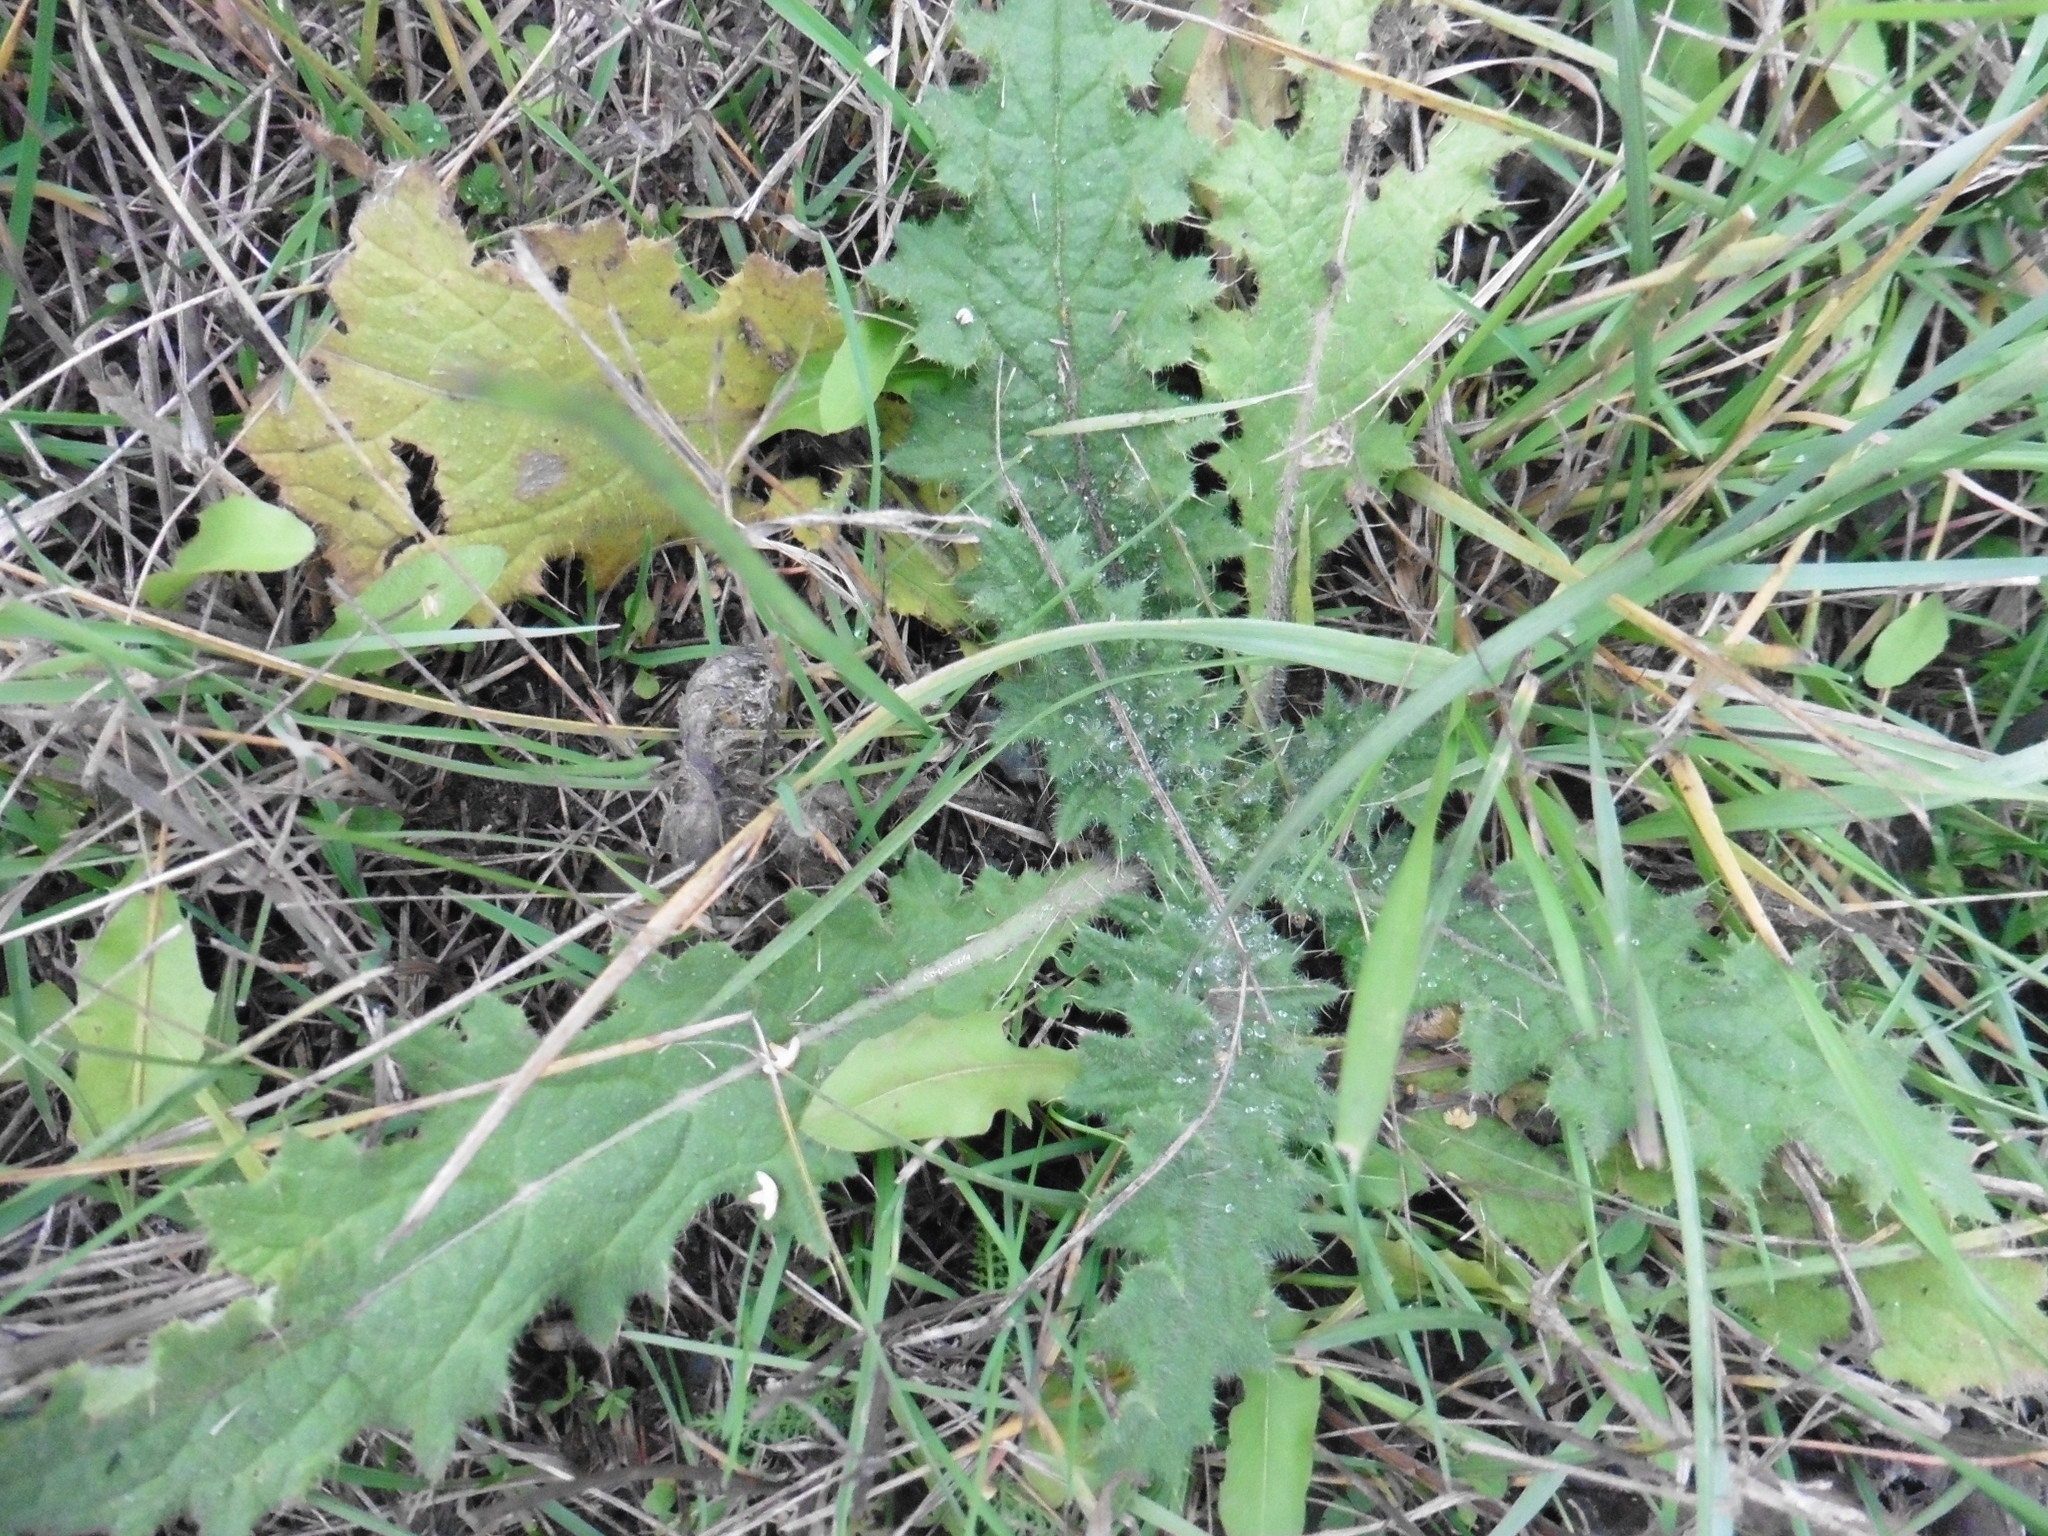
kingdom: Plantae
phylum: Tracheophyta
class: Magnoliopsida
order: Asterales
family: Asteraceae
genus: Cirsium
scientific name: Cirsium vulgare
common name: Bull thistle
